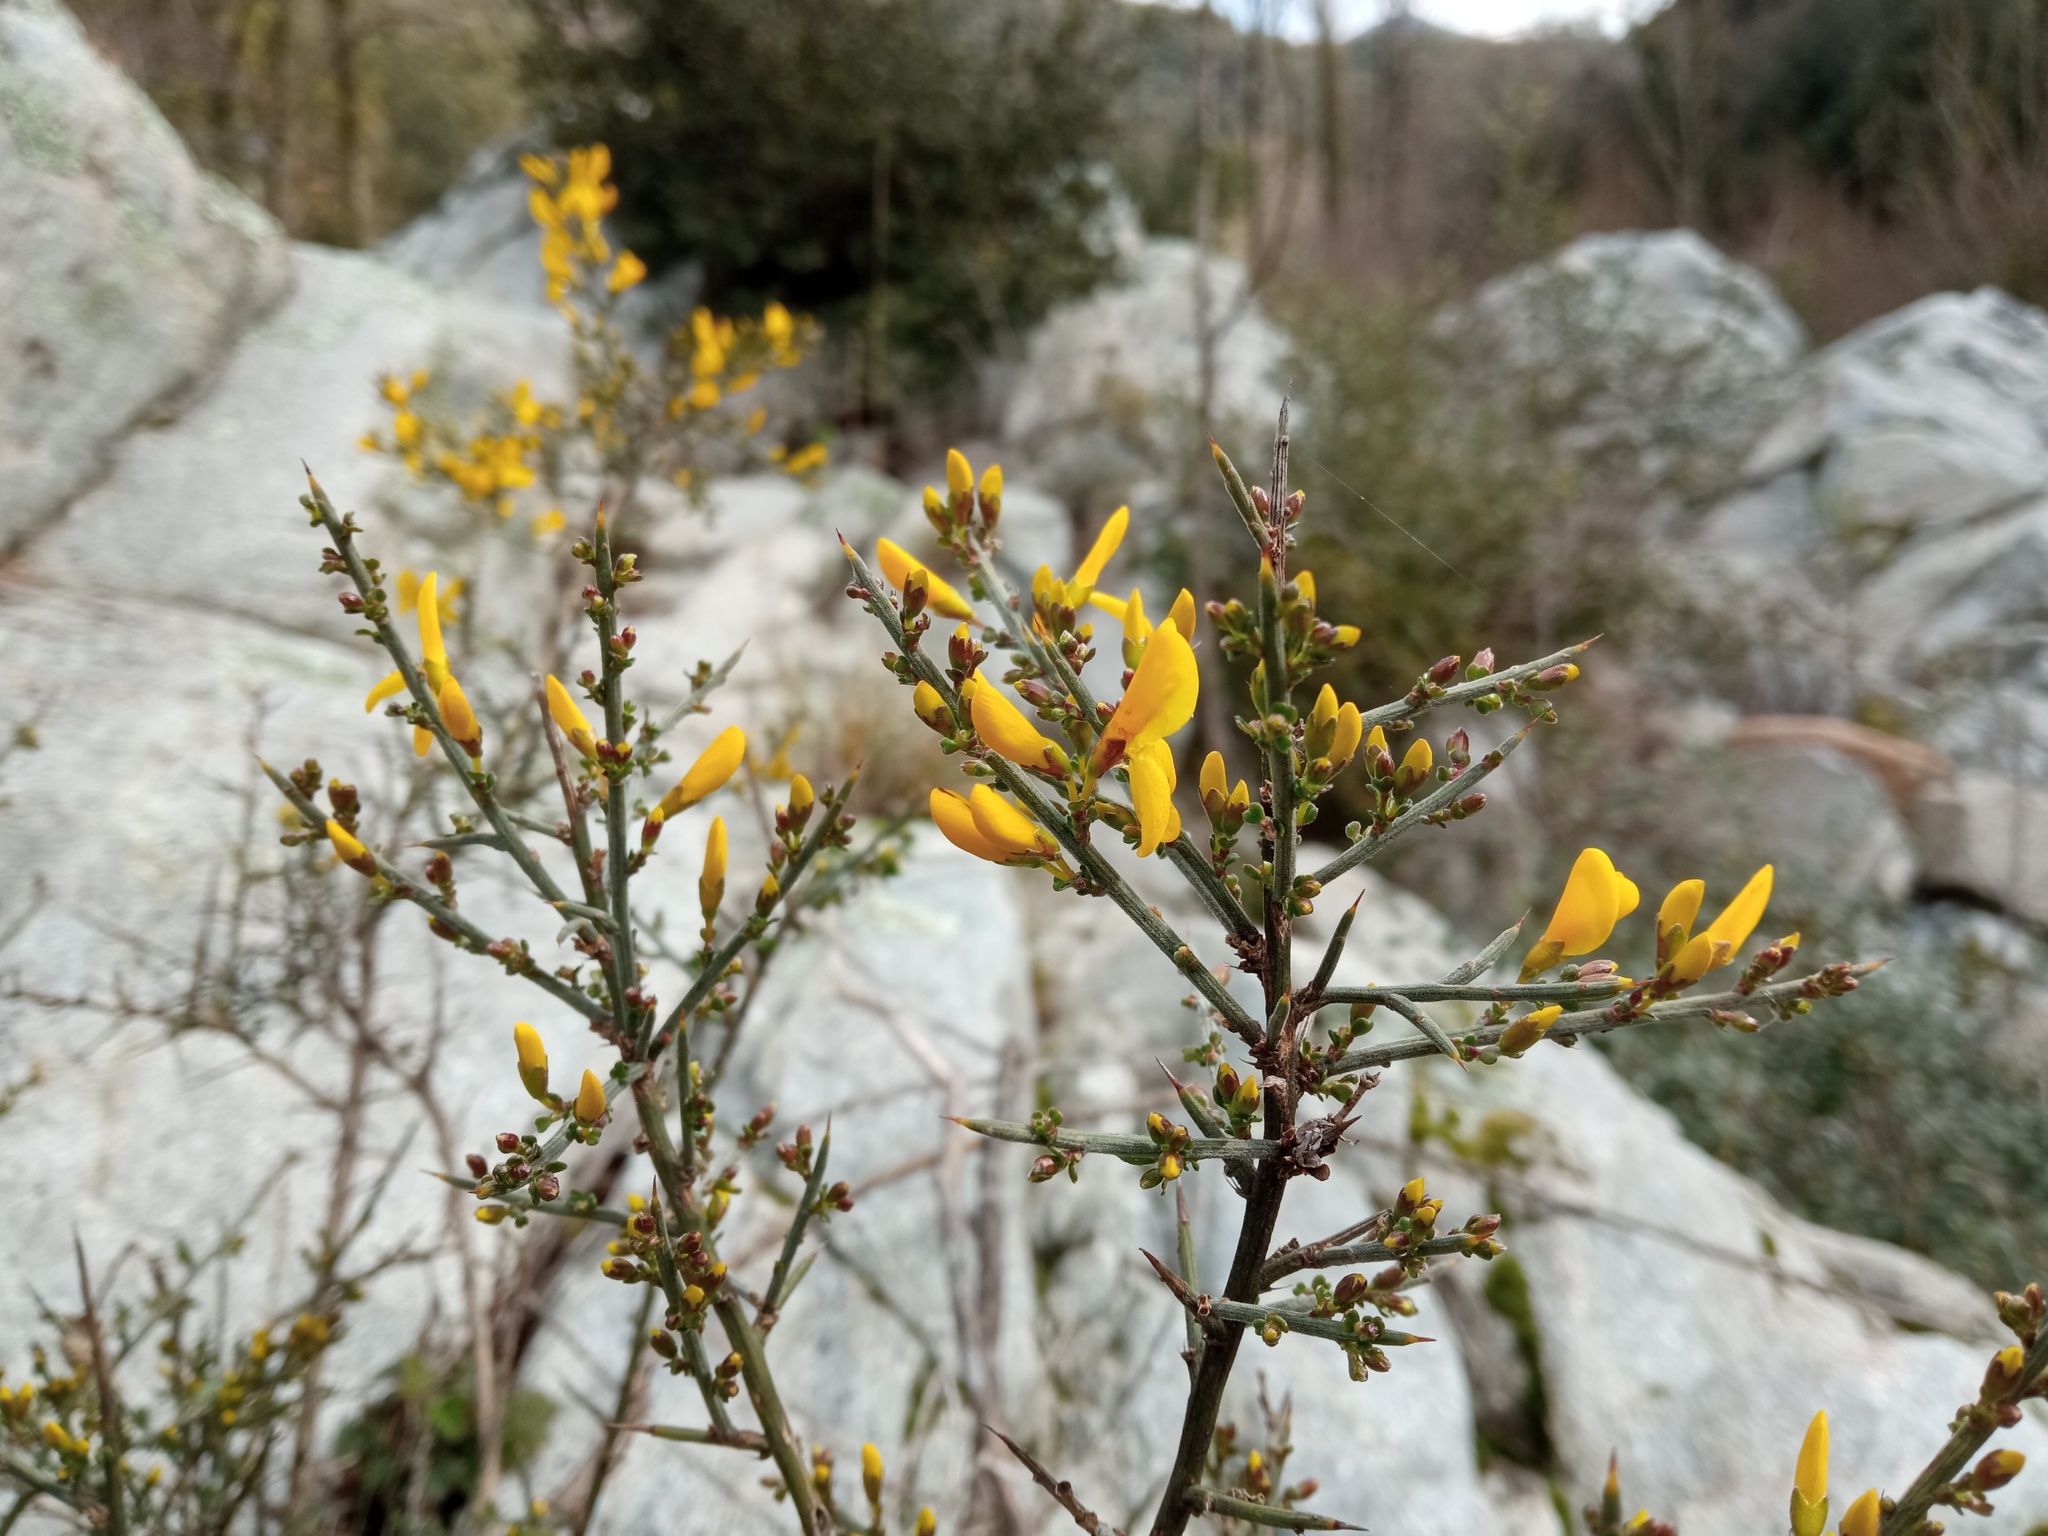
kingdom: Plantae
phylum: Tracheophyta
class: Magnoliopsida
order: Fabales
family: Fabaceae
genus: Genista
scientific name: Genista scorpius
